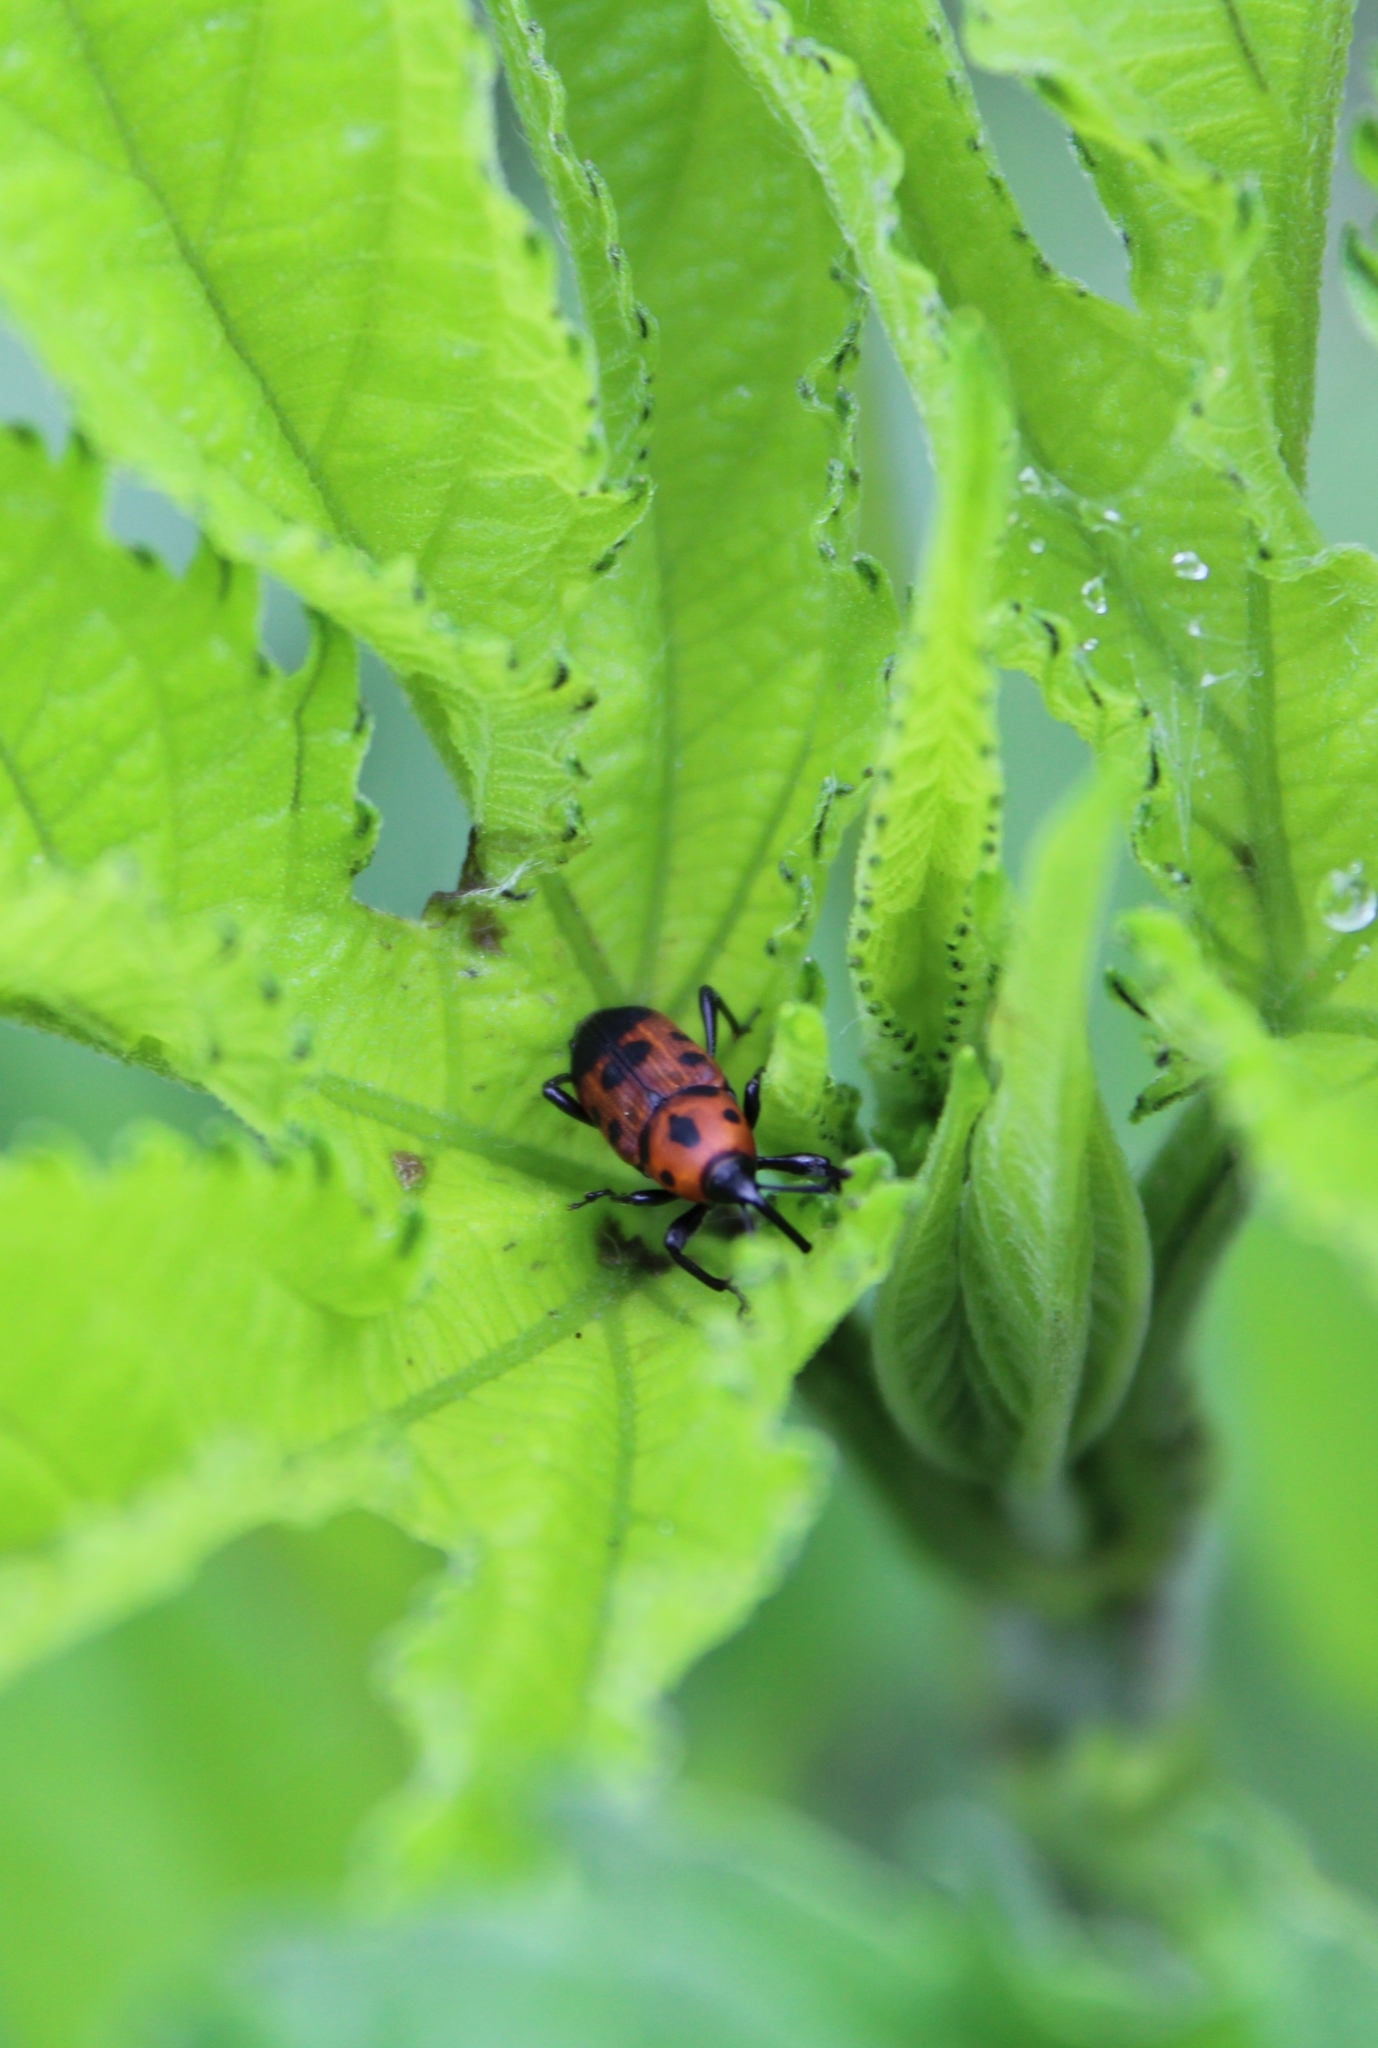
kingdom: Animalia
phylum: Arthropoda
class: Insecta
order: Coleoptera
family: Dryophthoridae
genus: Rhodobaenus
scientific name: Rhodobaenus quinquepunctatus
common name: Cocklebur weevil
